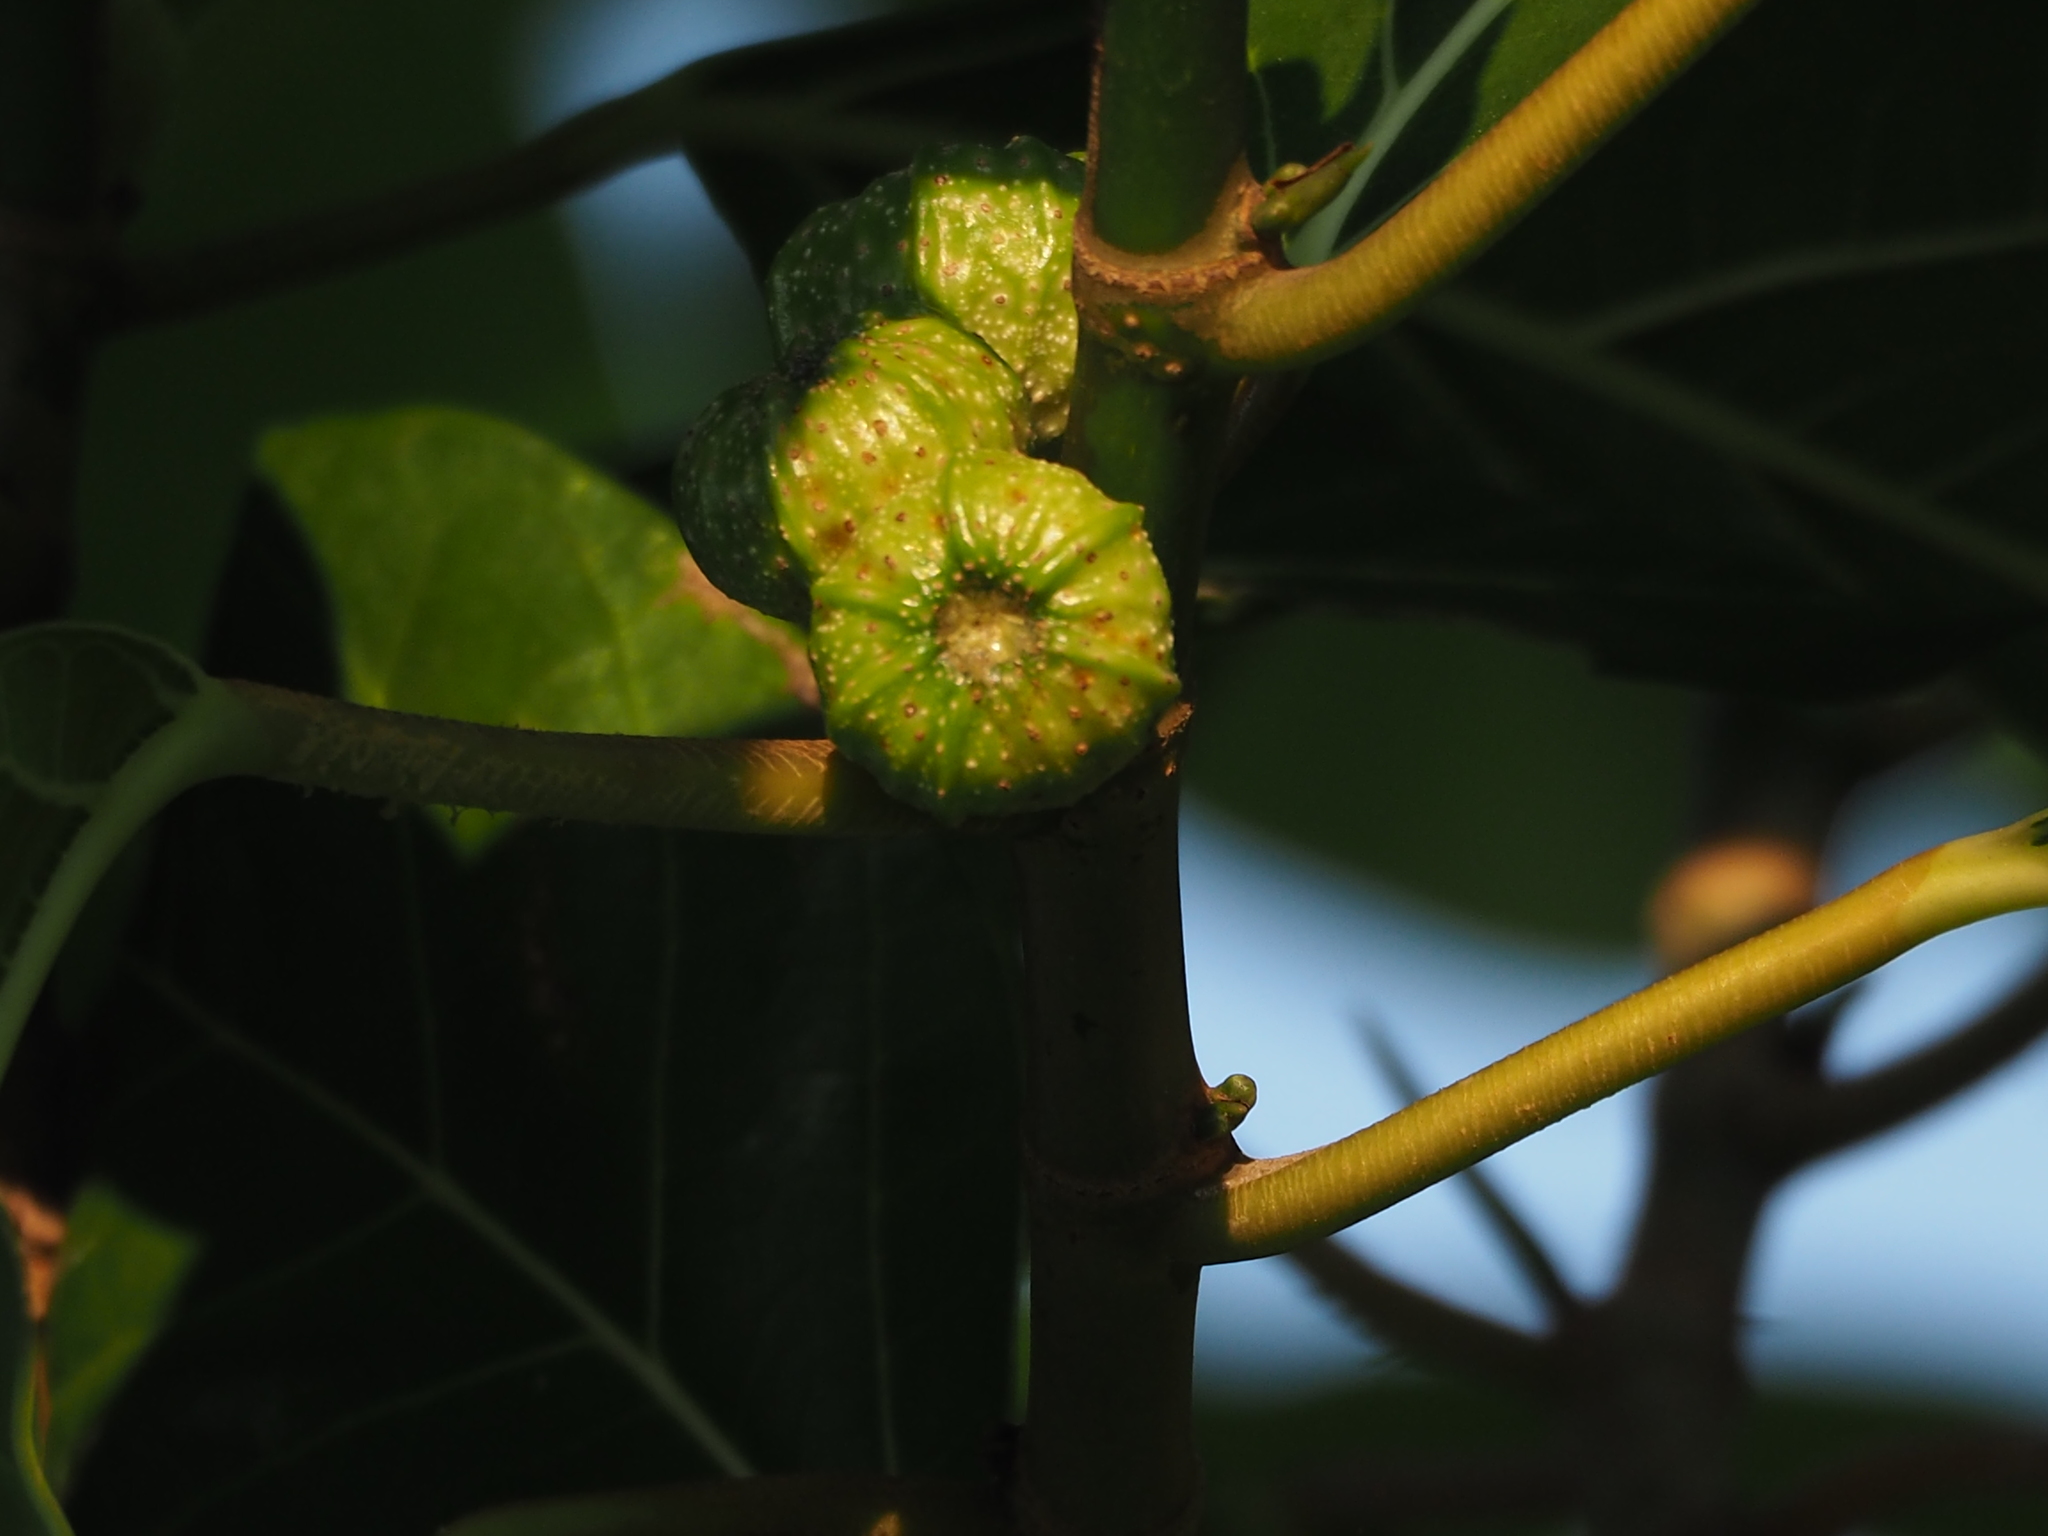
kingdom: Plantae
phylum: Tracheophyta
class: Magnoliopsida
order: Rosales
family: Moraceae
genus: Ficus
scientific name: Ficus septica
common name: Septic fig
